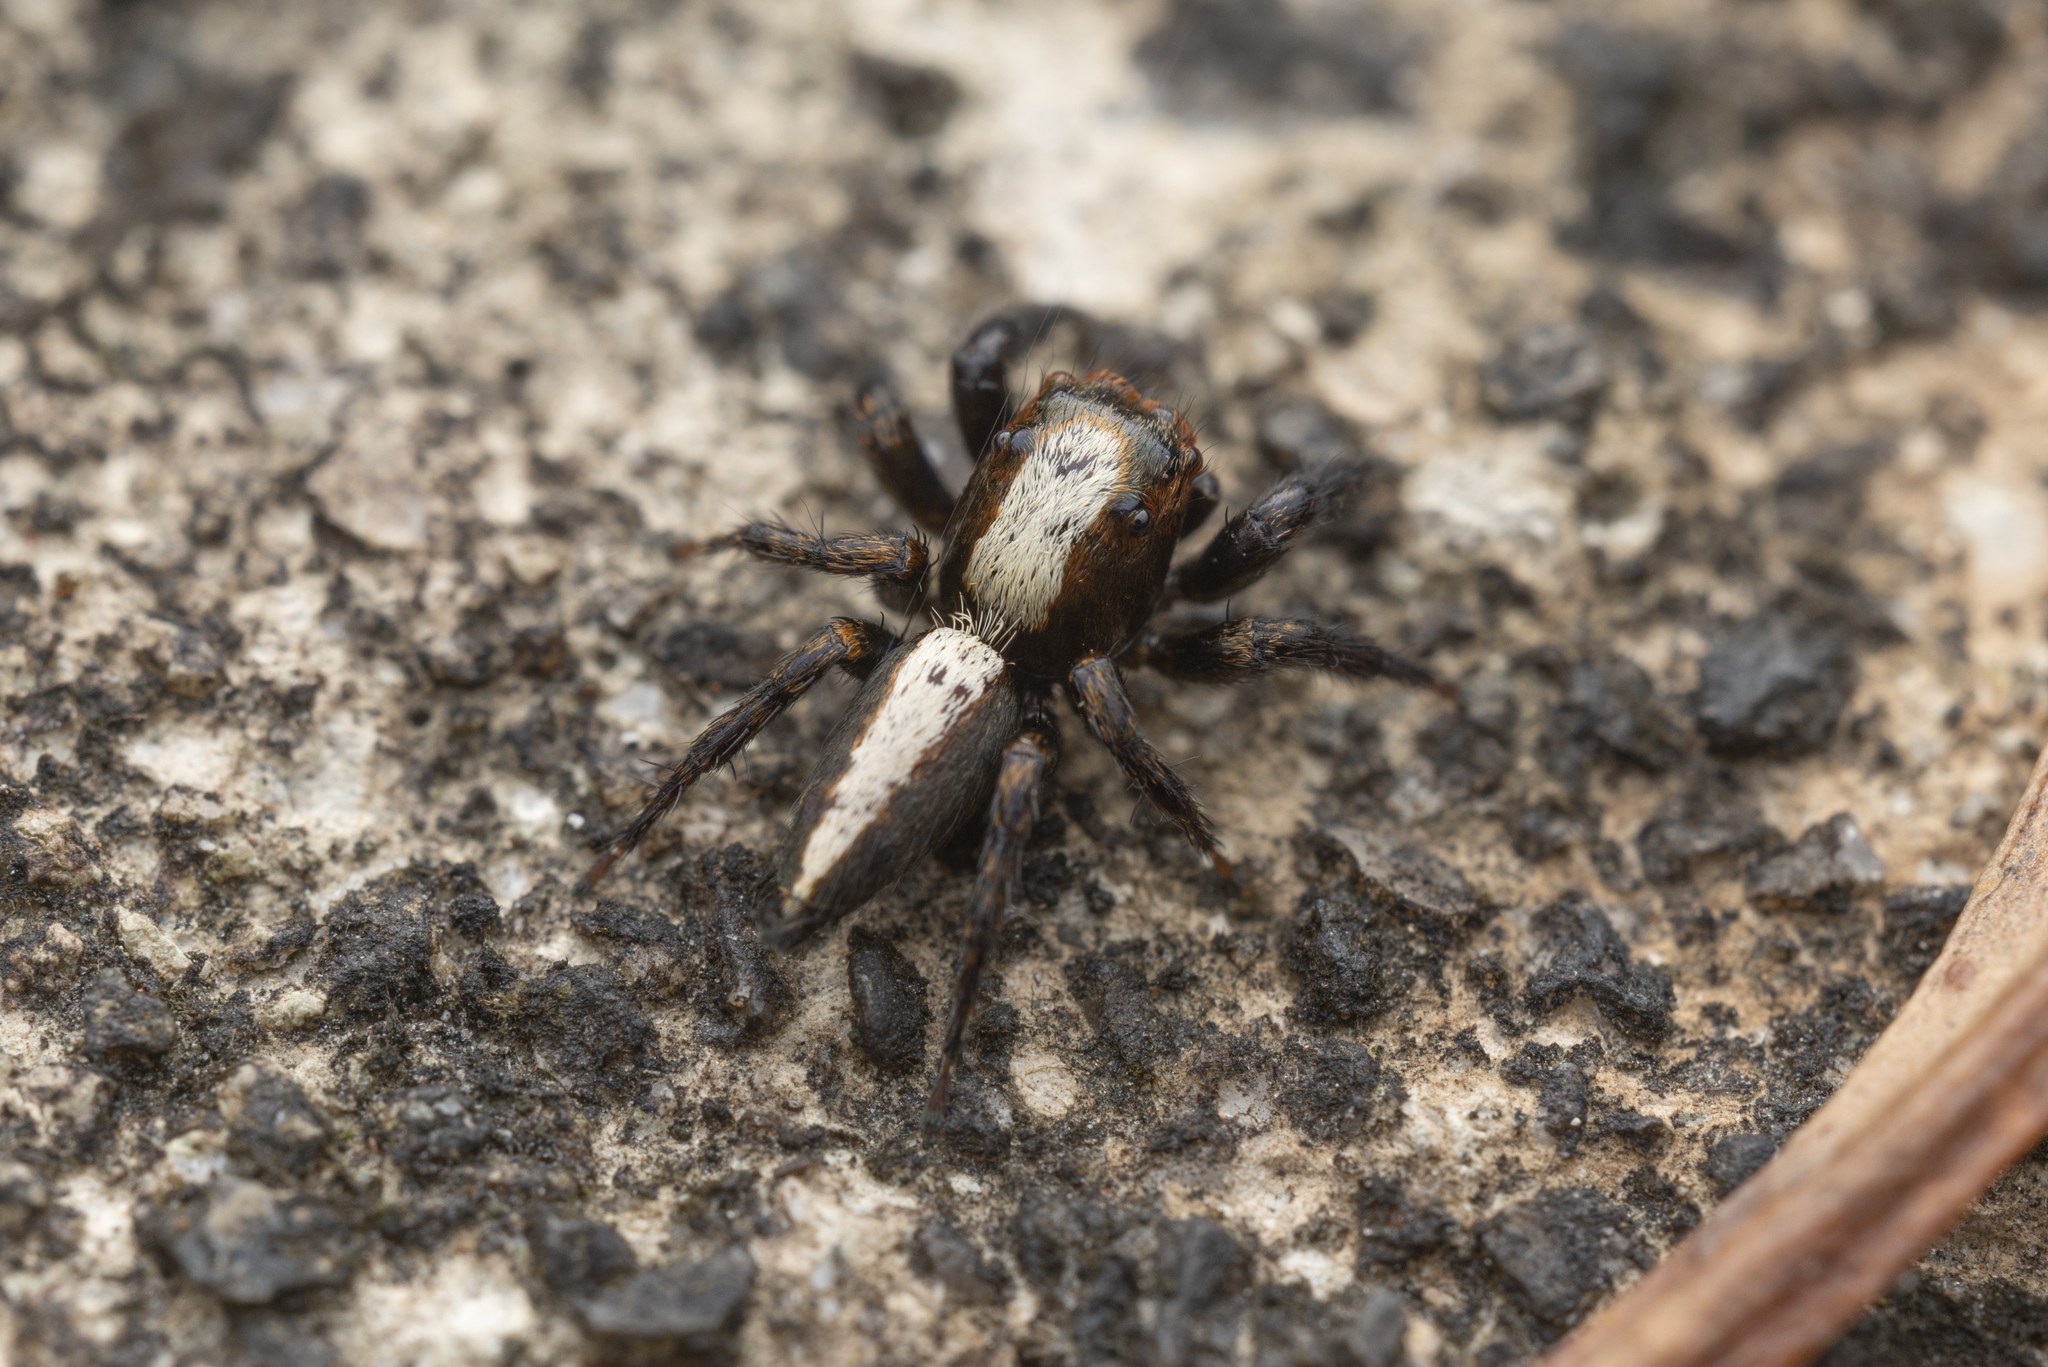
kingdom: Animalia
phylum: Arthropoda
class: Arachnida
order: Araneae
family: Salticidae
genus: Thyene
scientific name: Thyene orientalis
